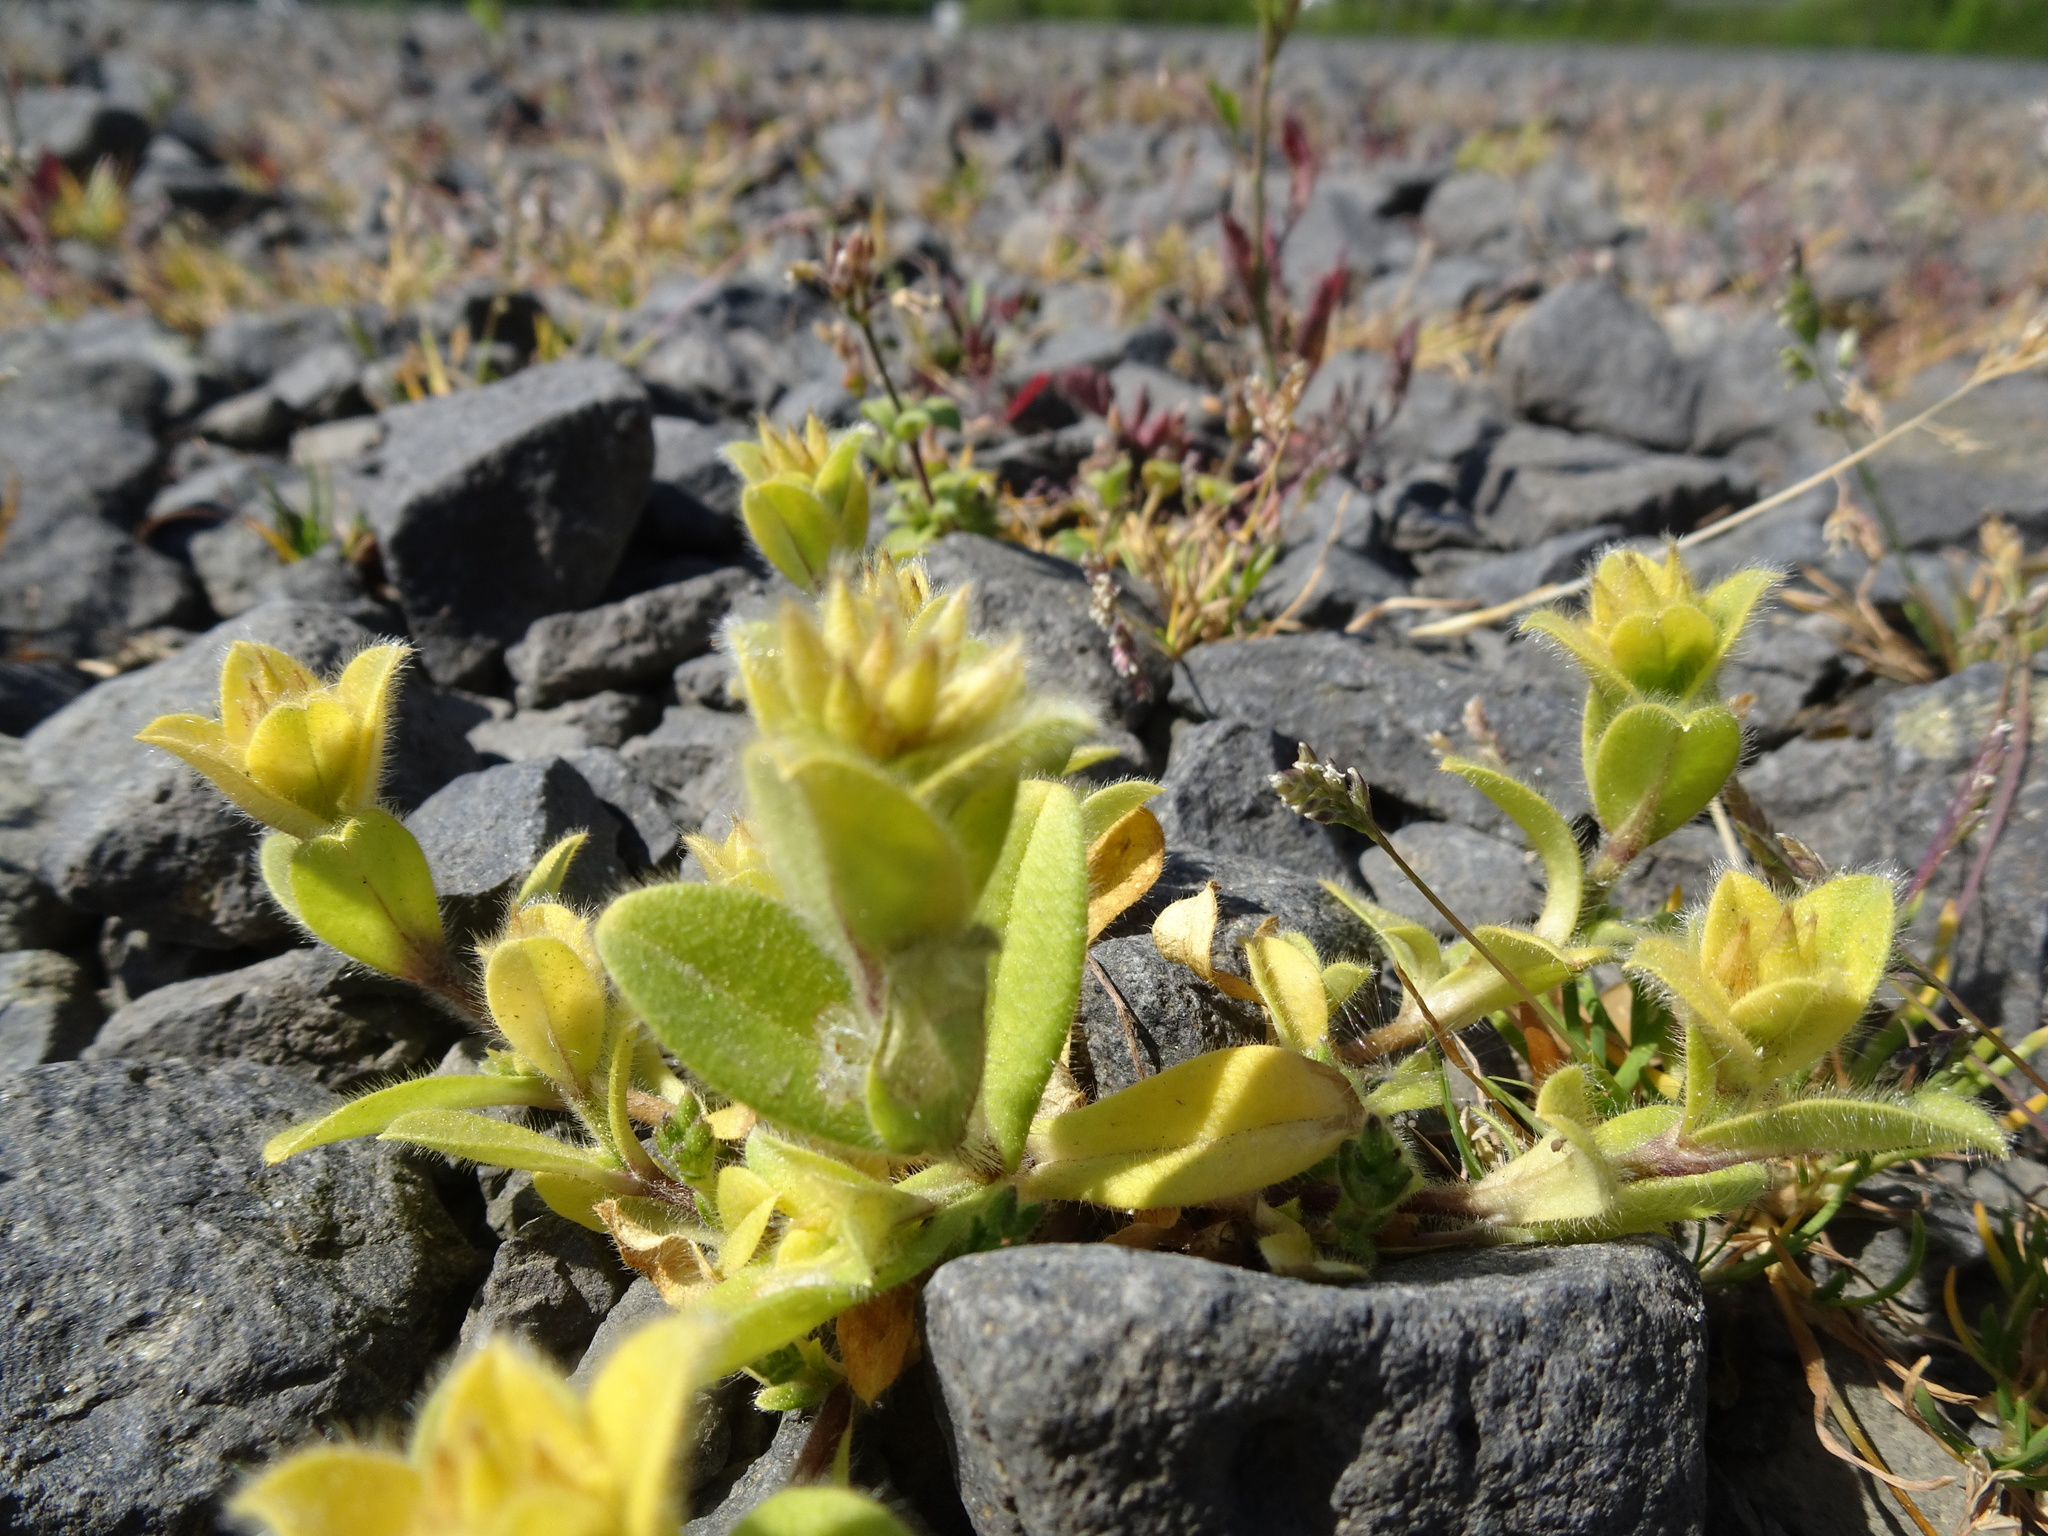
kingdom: Plantae
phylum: Tracheophyta
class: Magnoliopsida
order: Caryophyllales
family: Caryophyllaceae
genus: Cerastium
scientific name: Cerastium glomeratum
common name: Sticky chickweed
